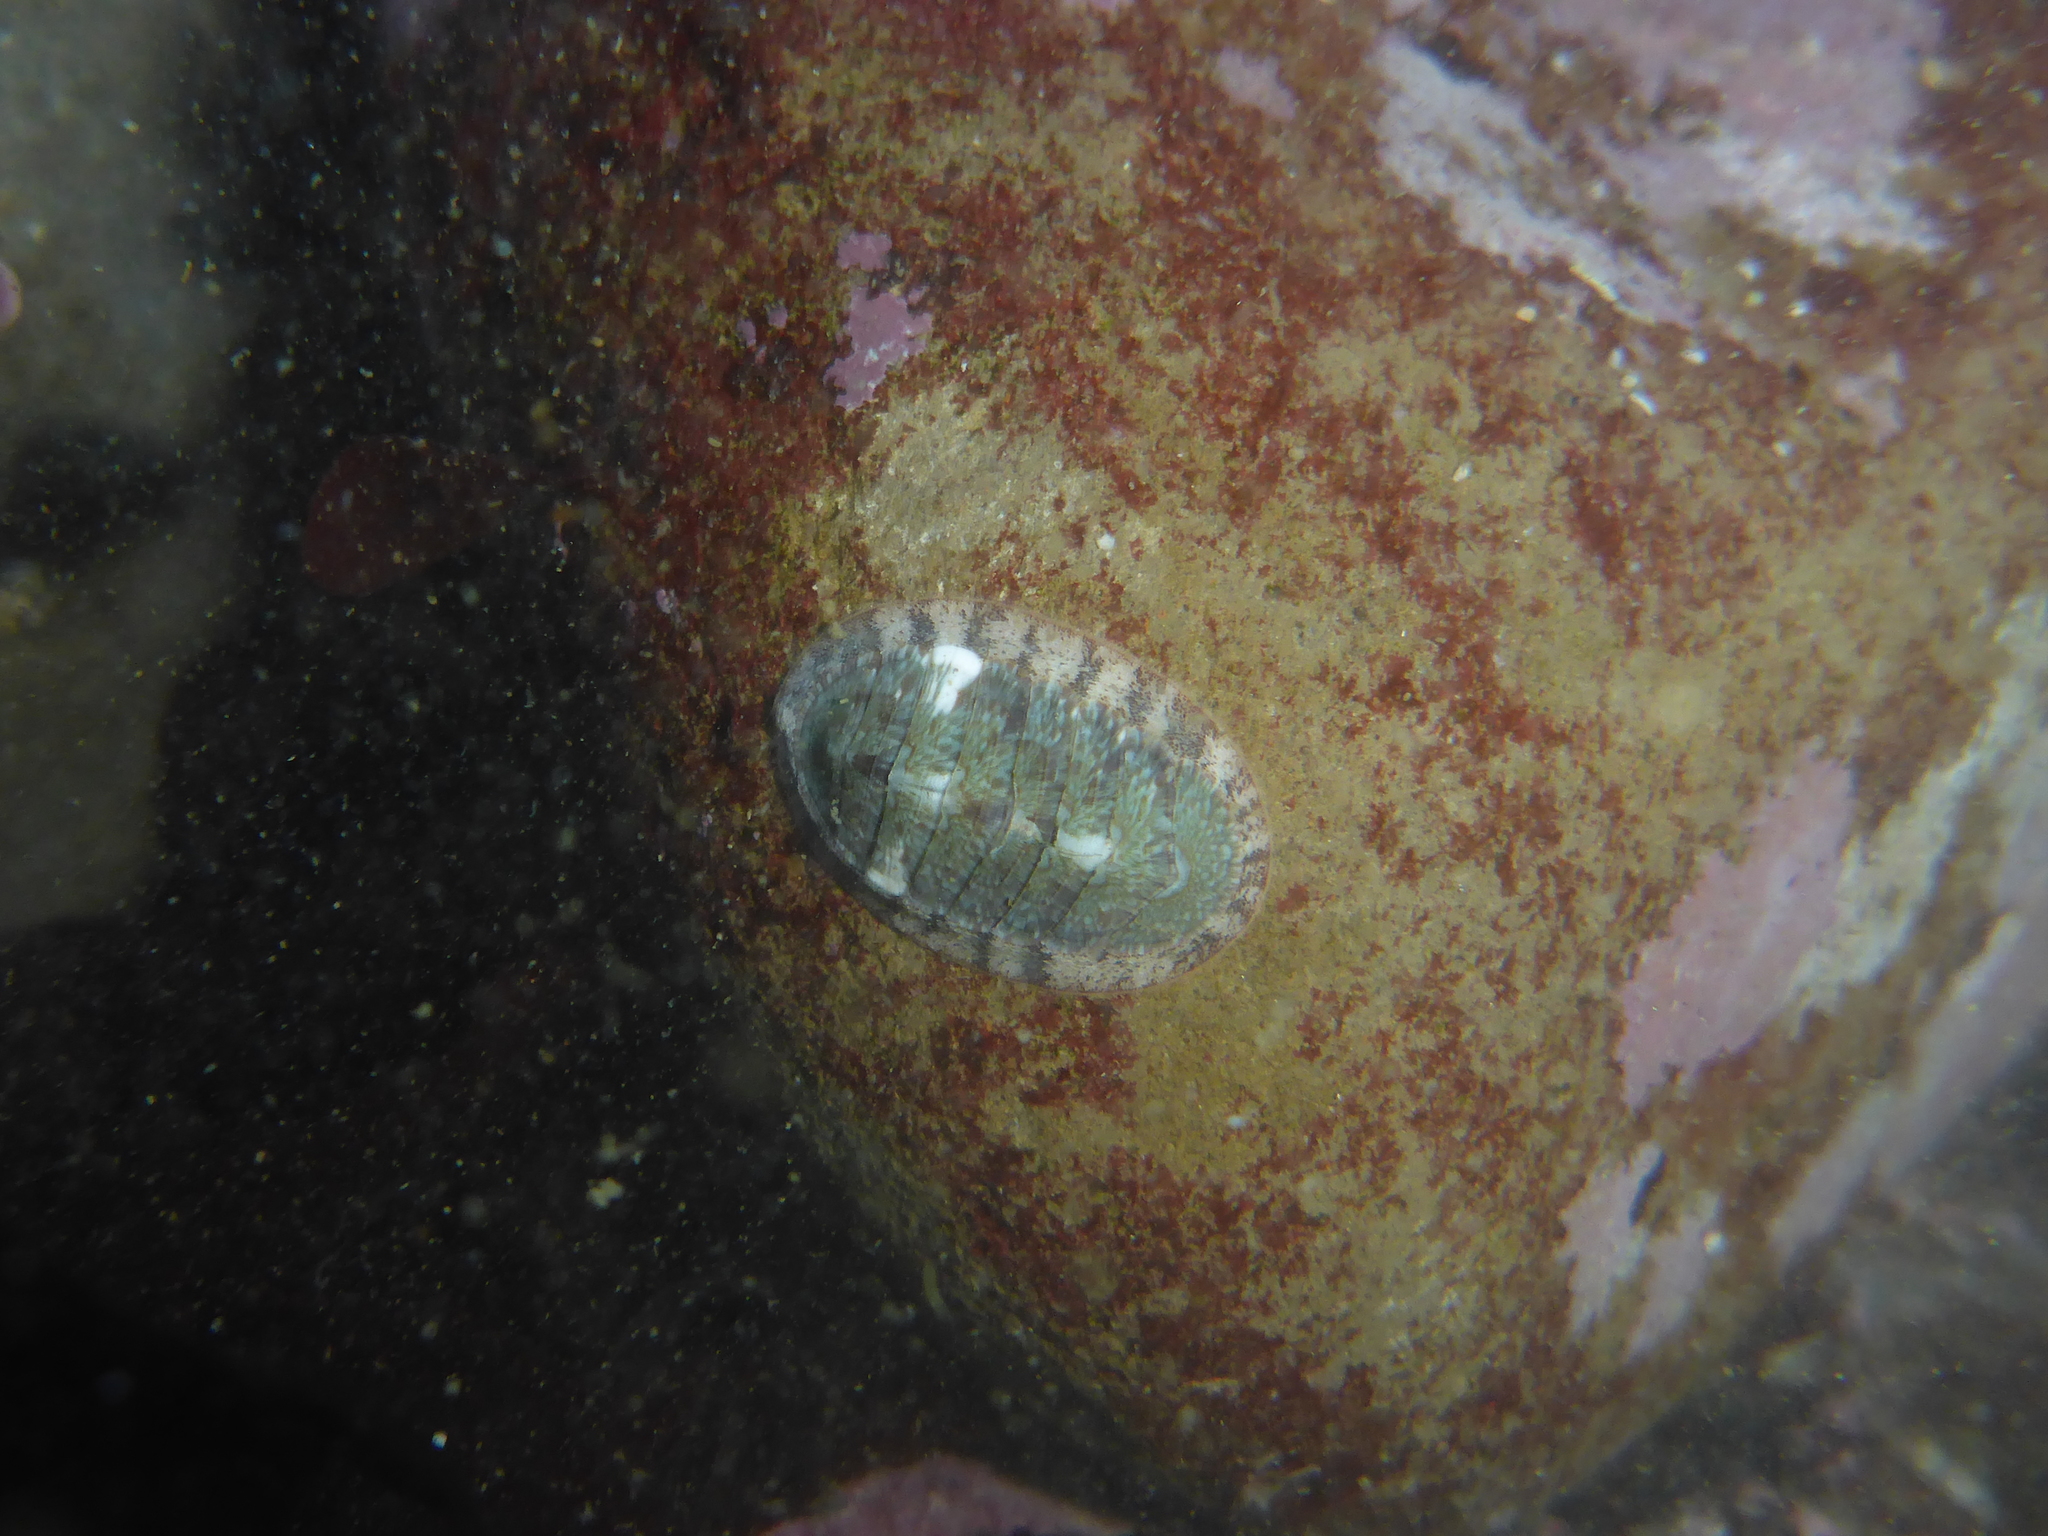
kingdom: Animalia
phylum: Mollusca
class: Polyplacophora
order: Chitonida
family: Ischnochitonidae
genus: Lepidozona
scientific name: Lepidozona radians
